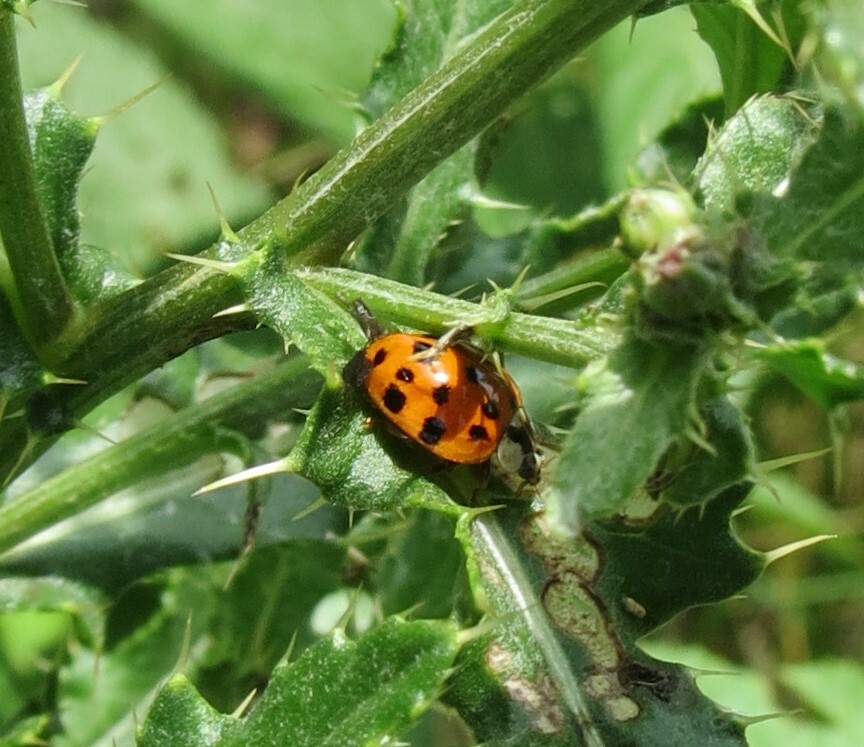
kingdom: Animalia
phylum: Arthropoda
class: Insecta
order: Coleoptera
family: Coccinellidae
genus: Harmonia
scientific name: Harmonia axyridis
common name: Harlequin ladybird
